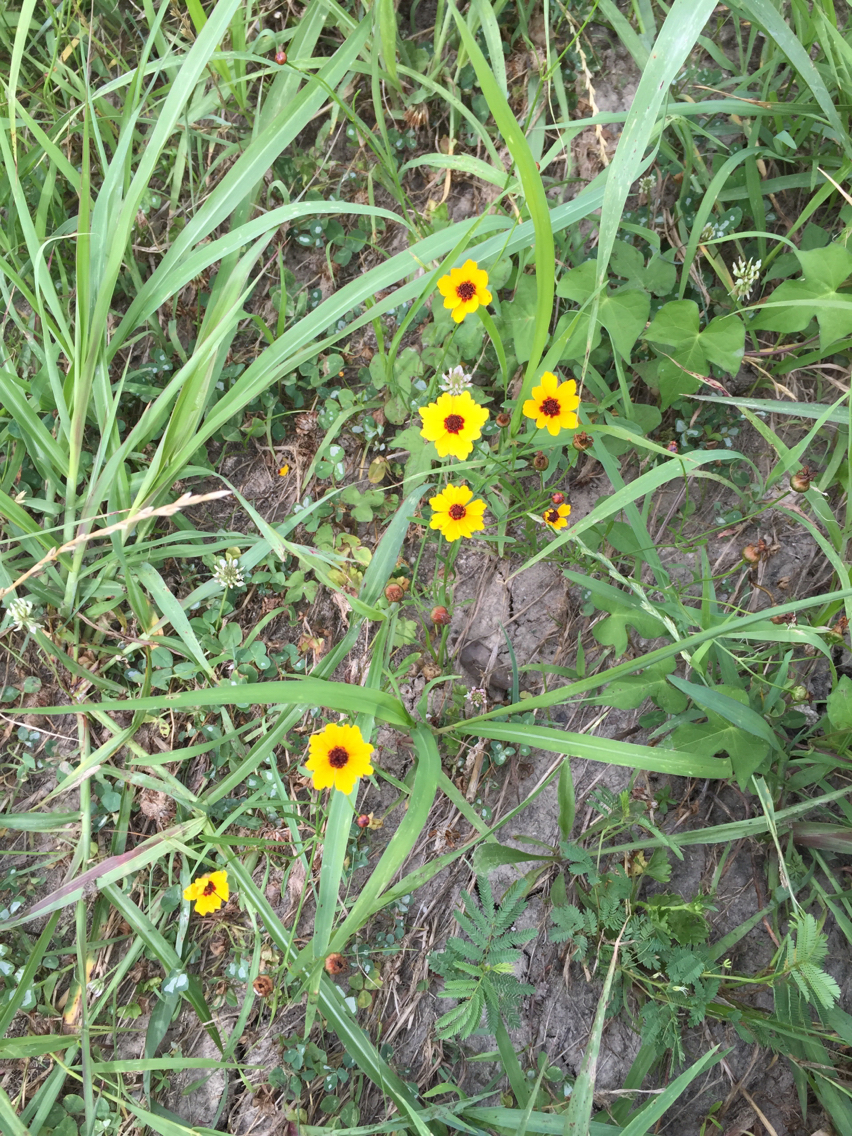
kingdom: Plantae
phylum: Tracheophyta
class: Magnoliopsida
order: Asterales
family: Asteraceae
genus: Coreopsis
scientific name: Coreopsis tinctoria
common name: Garden tickseed
